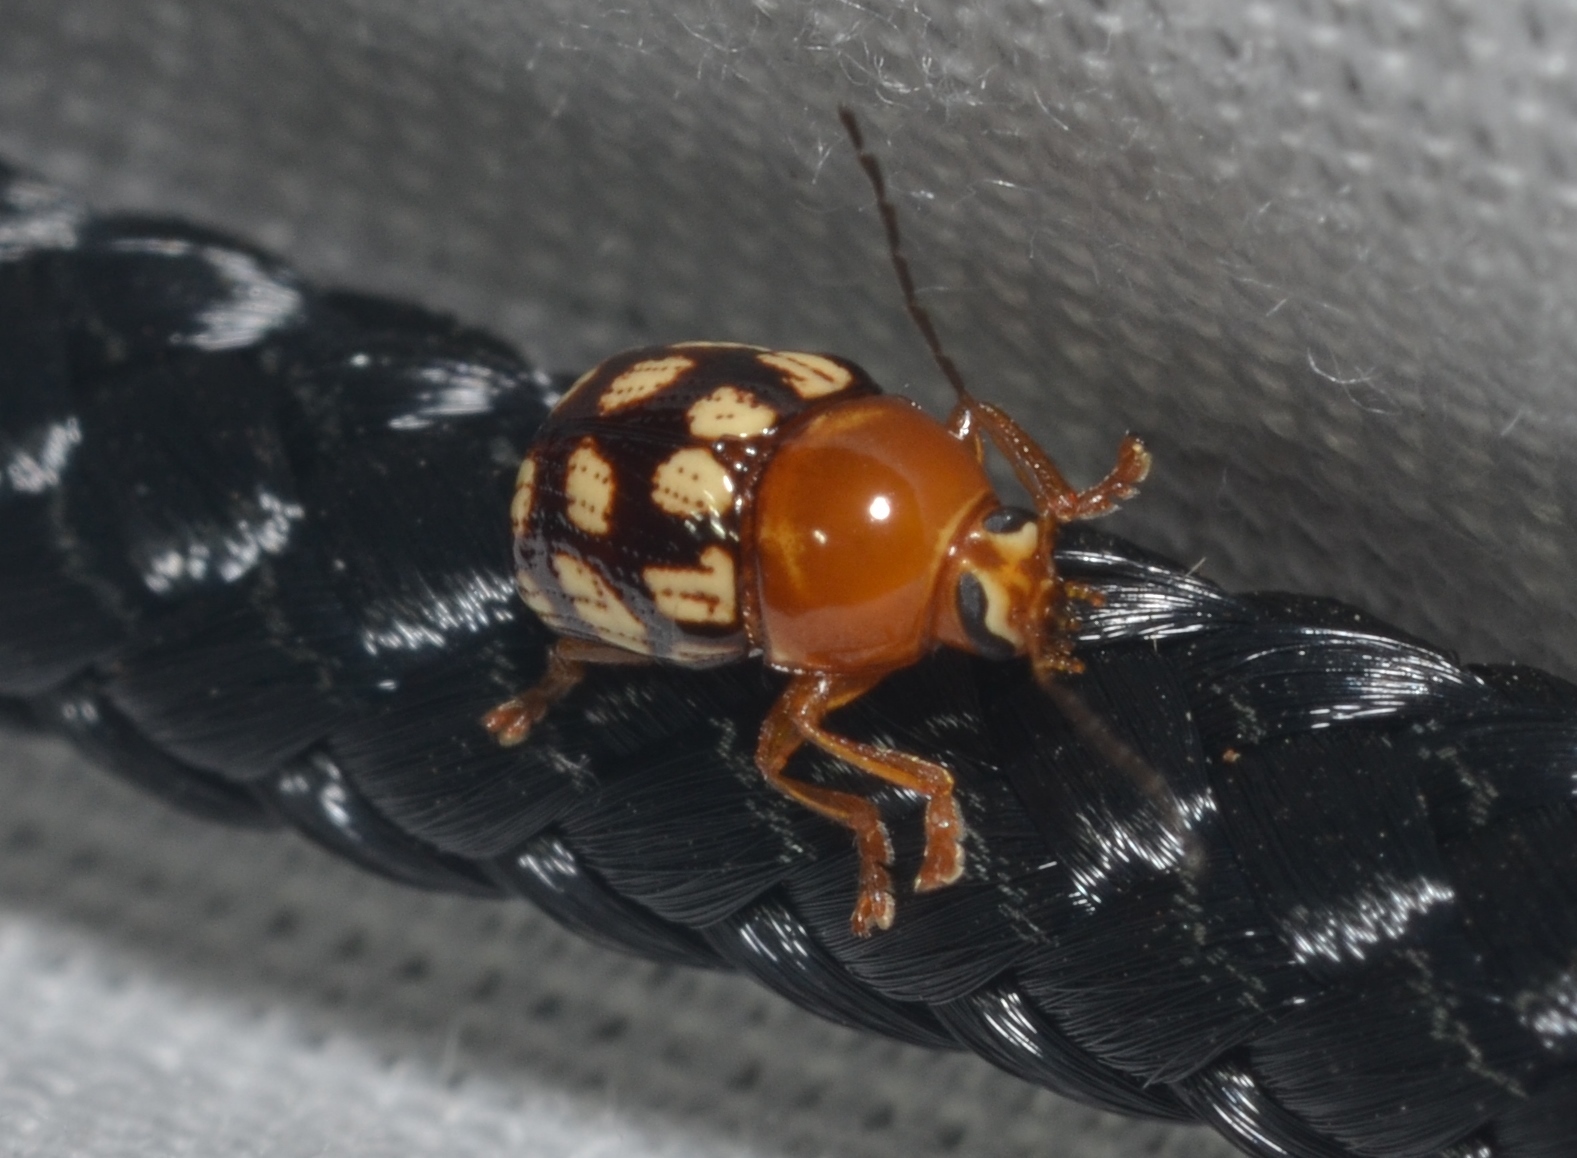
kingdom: Animalia
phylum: Arthropoda
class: Insecta
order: Coleoptera
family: Chrysomelidae
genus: Cryptocephalus
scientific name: Cryptocephalus guttulatus
